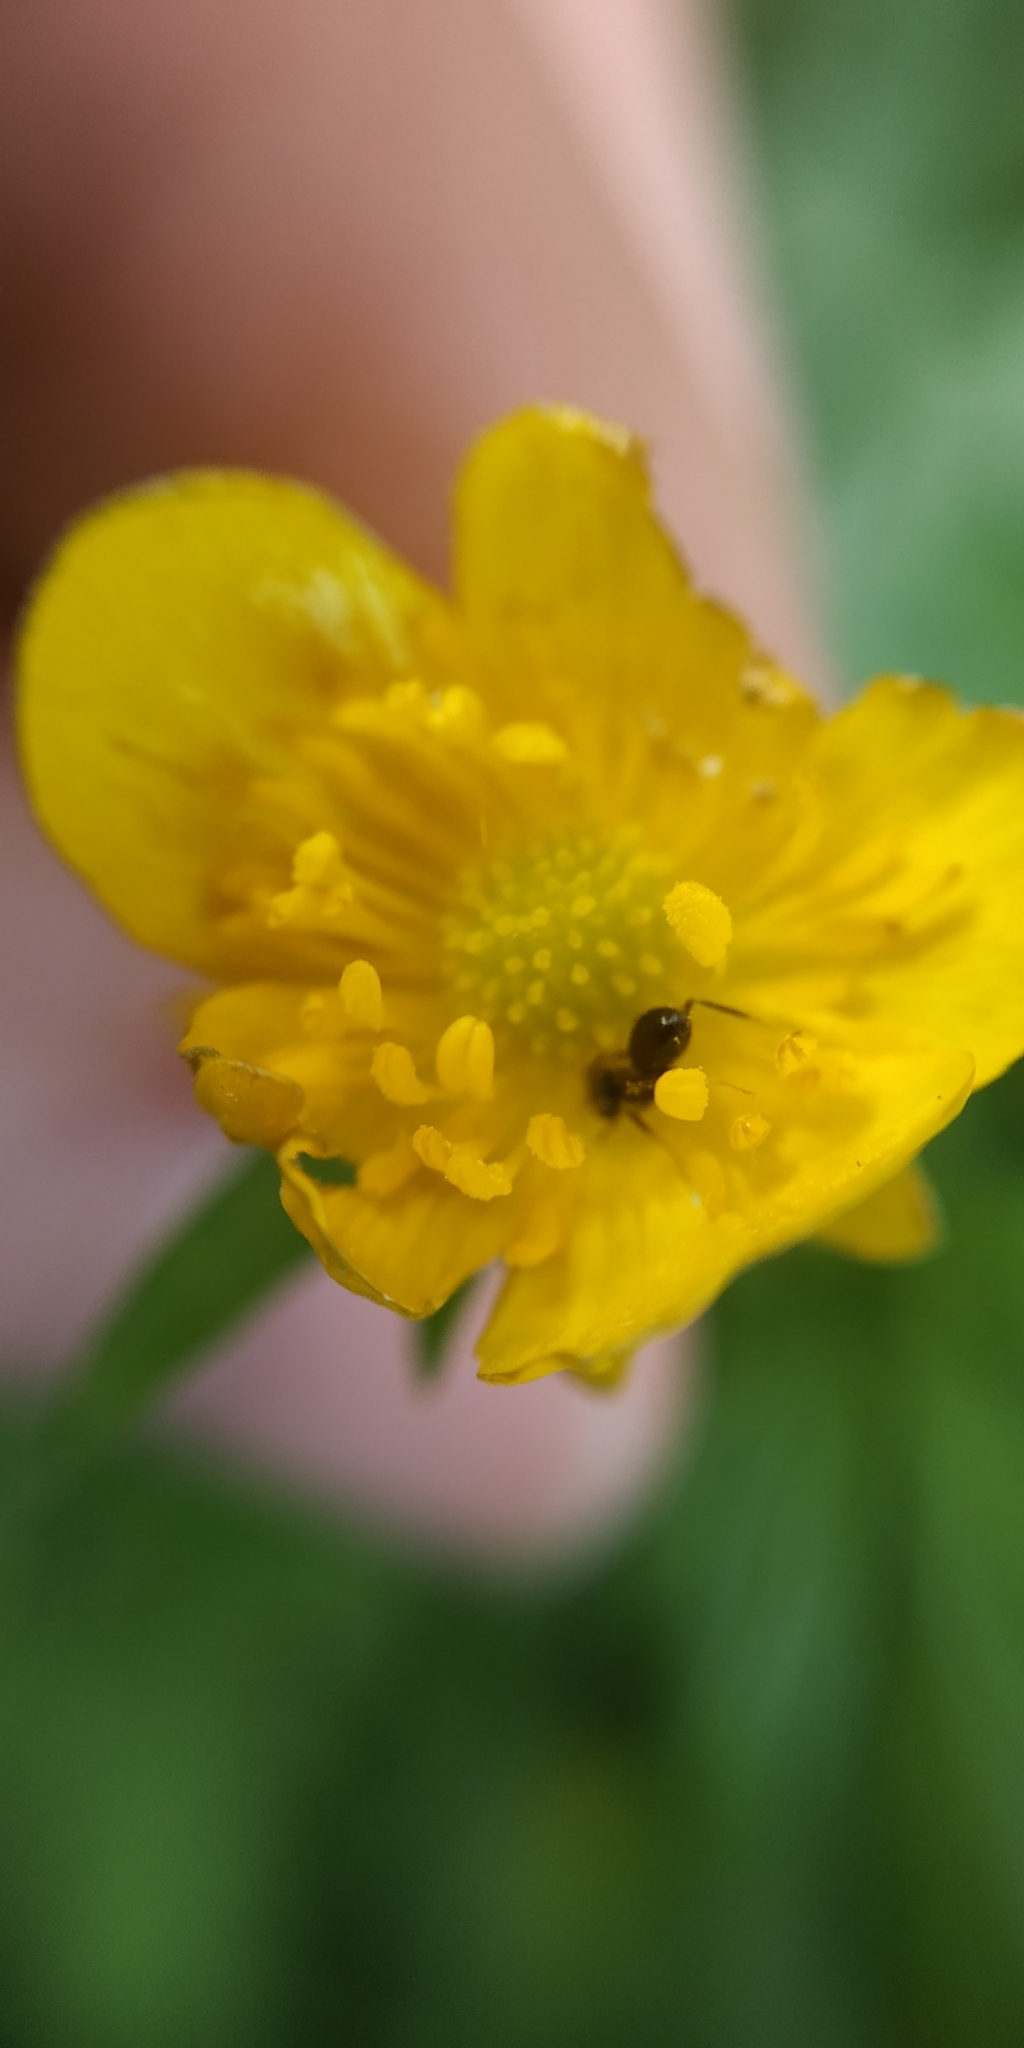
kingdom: Plantae
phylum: Tracheophyta
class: Magnoliopsida
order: Ranunculales
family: Ranunculaceae
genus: Ranunculus
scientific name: Ranunculus repens
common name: Creeping buttercup
